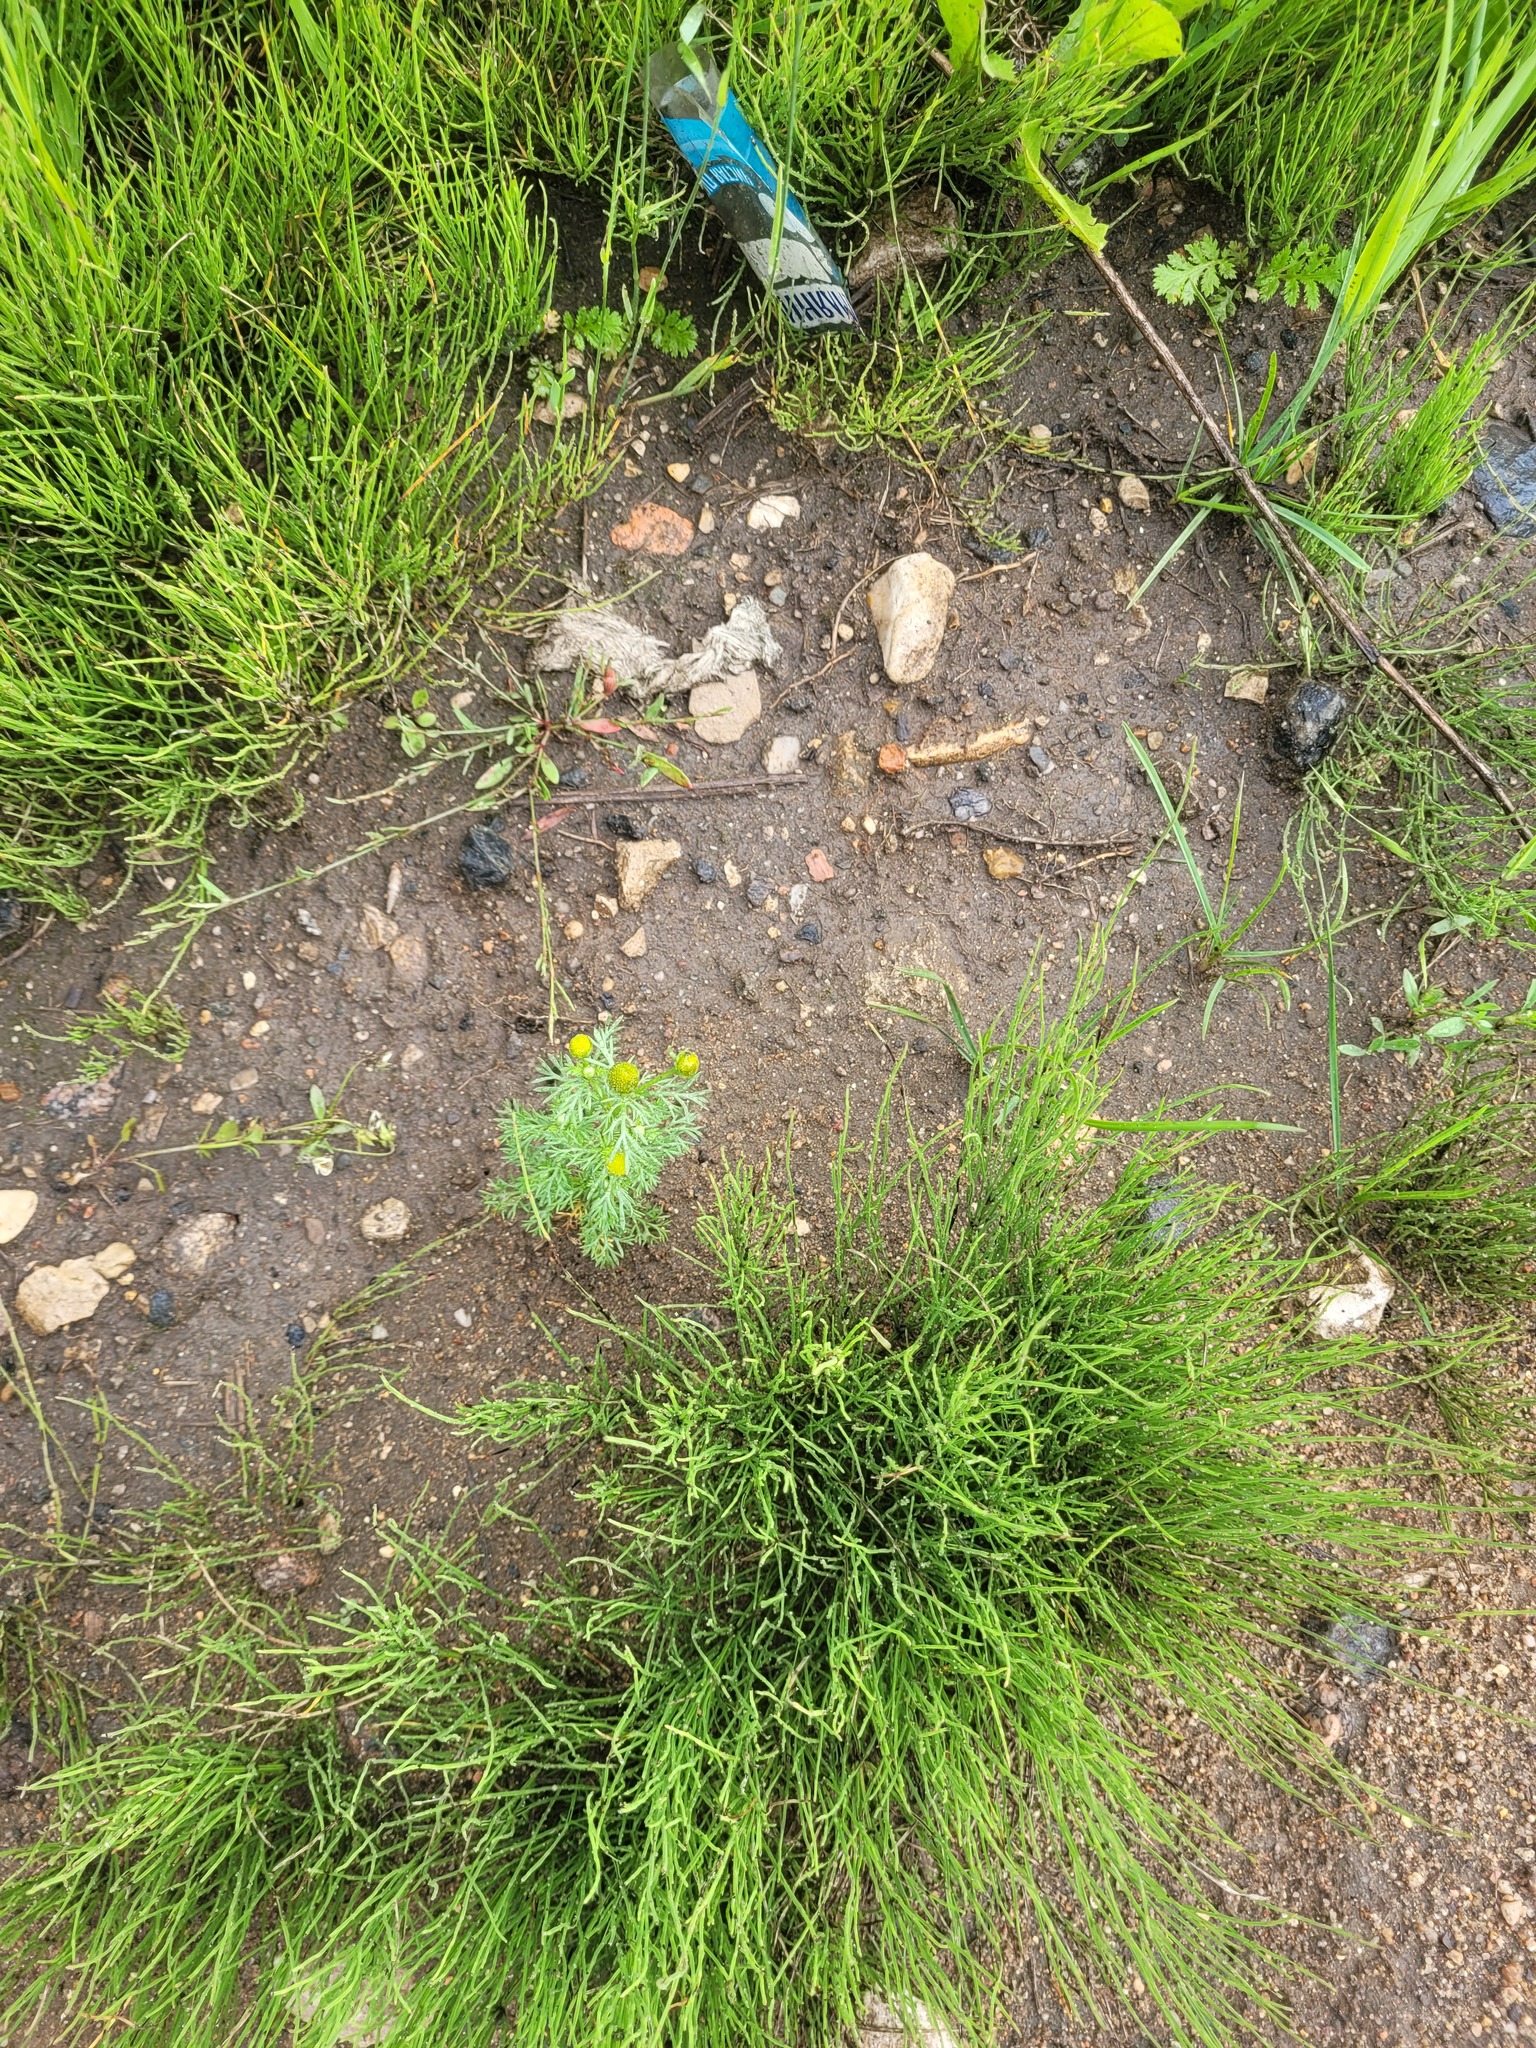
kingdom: Plantae
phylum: Tracheophyta
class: Magnoliopsida
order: Asterales
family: Asteraceae
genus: Matricaria
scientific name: Matricaria discoidea
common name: Disc mayweed
